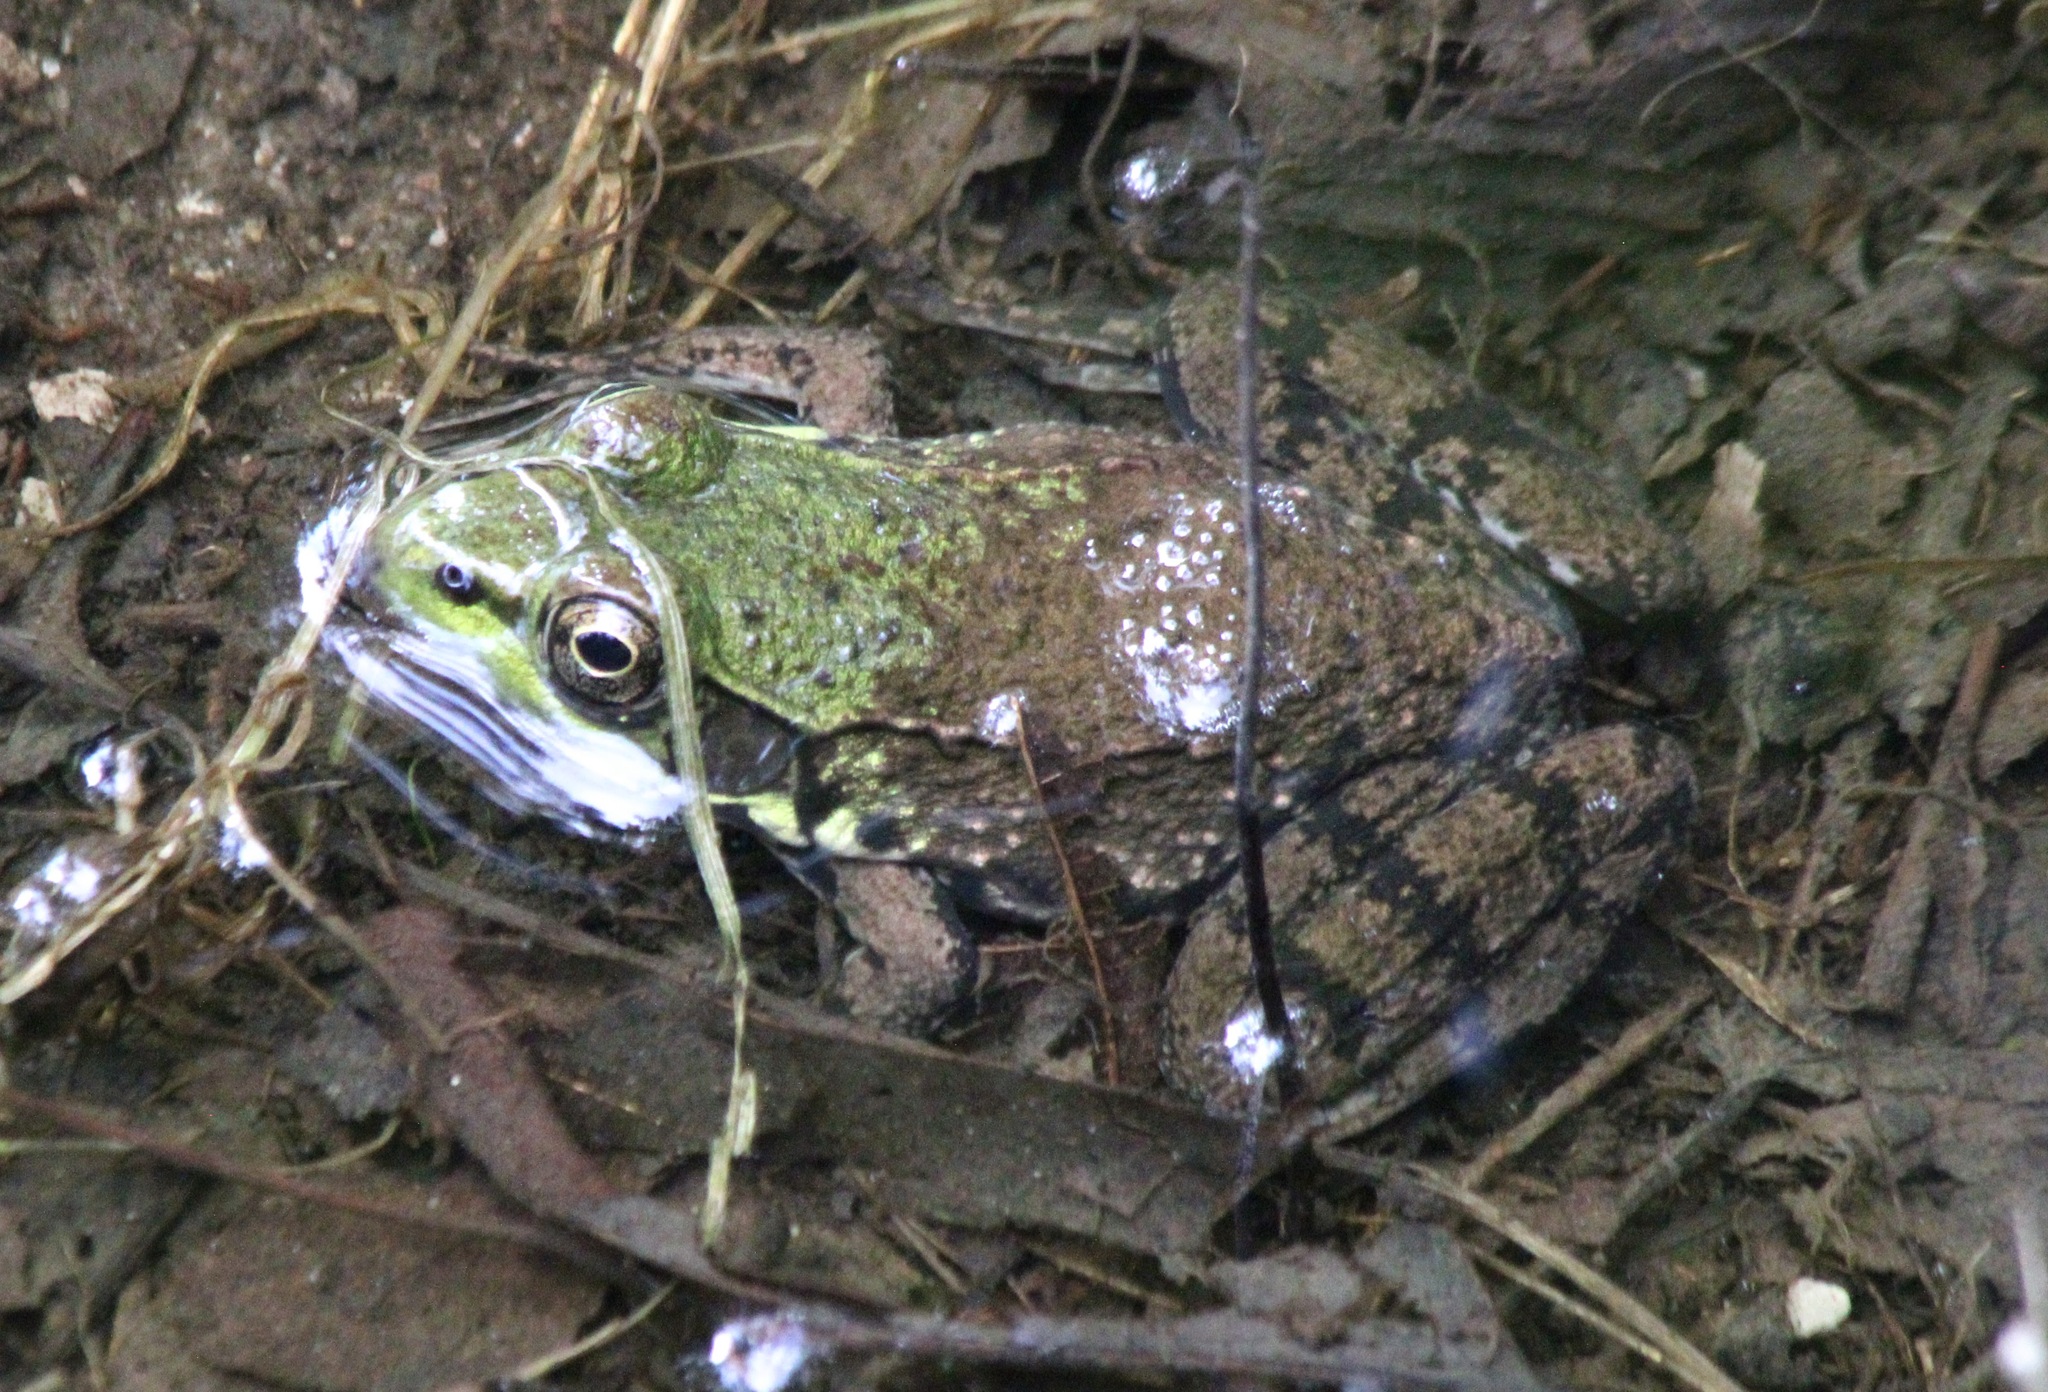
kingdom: Animalia
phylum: Chordata
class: Amphibia
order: Anura
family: Ranidae
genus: Lithobates
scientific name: Lithobates clamitans
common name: Green frog
